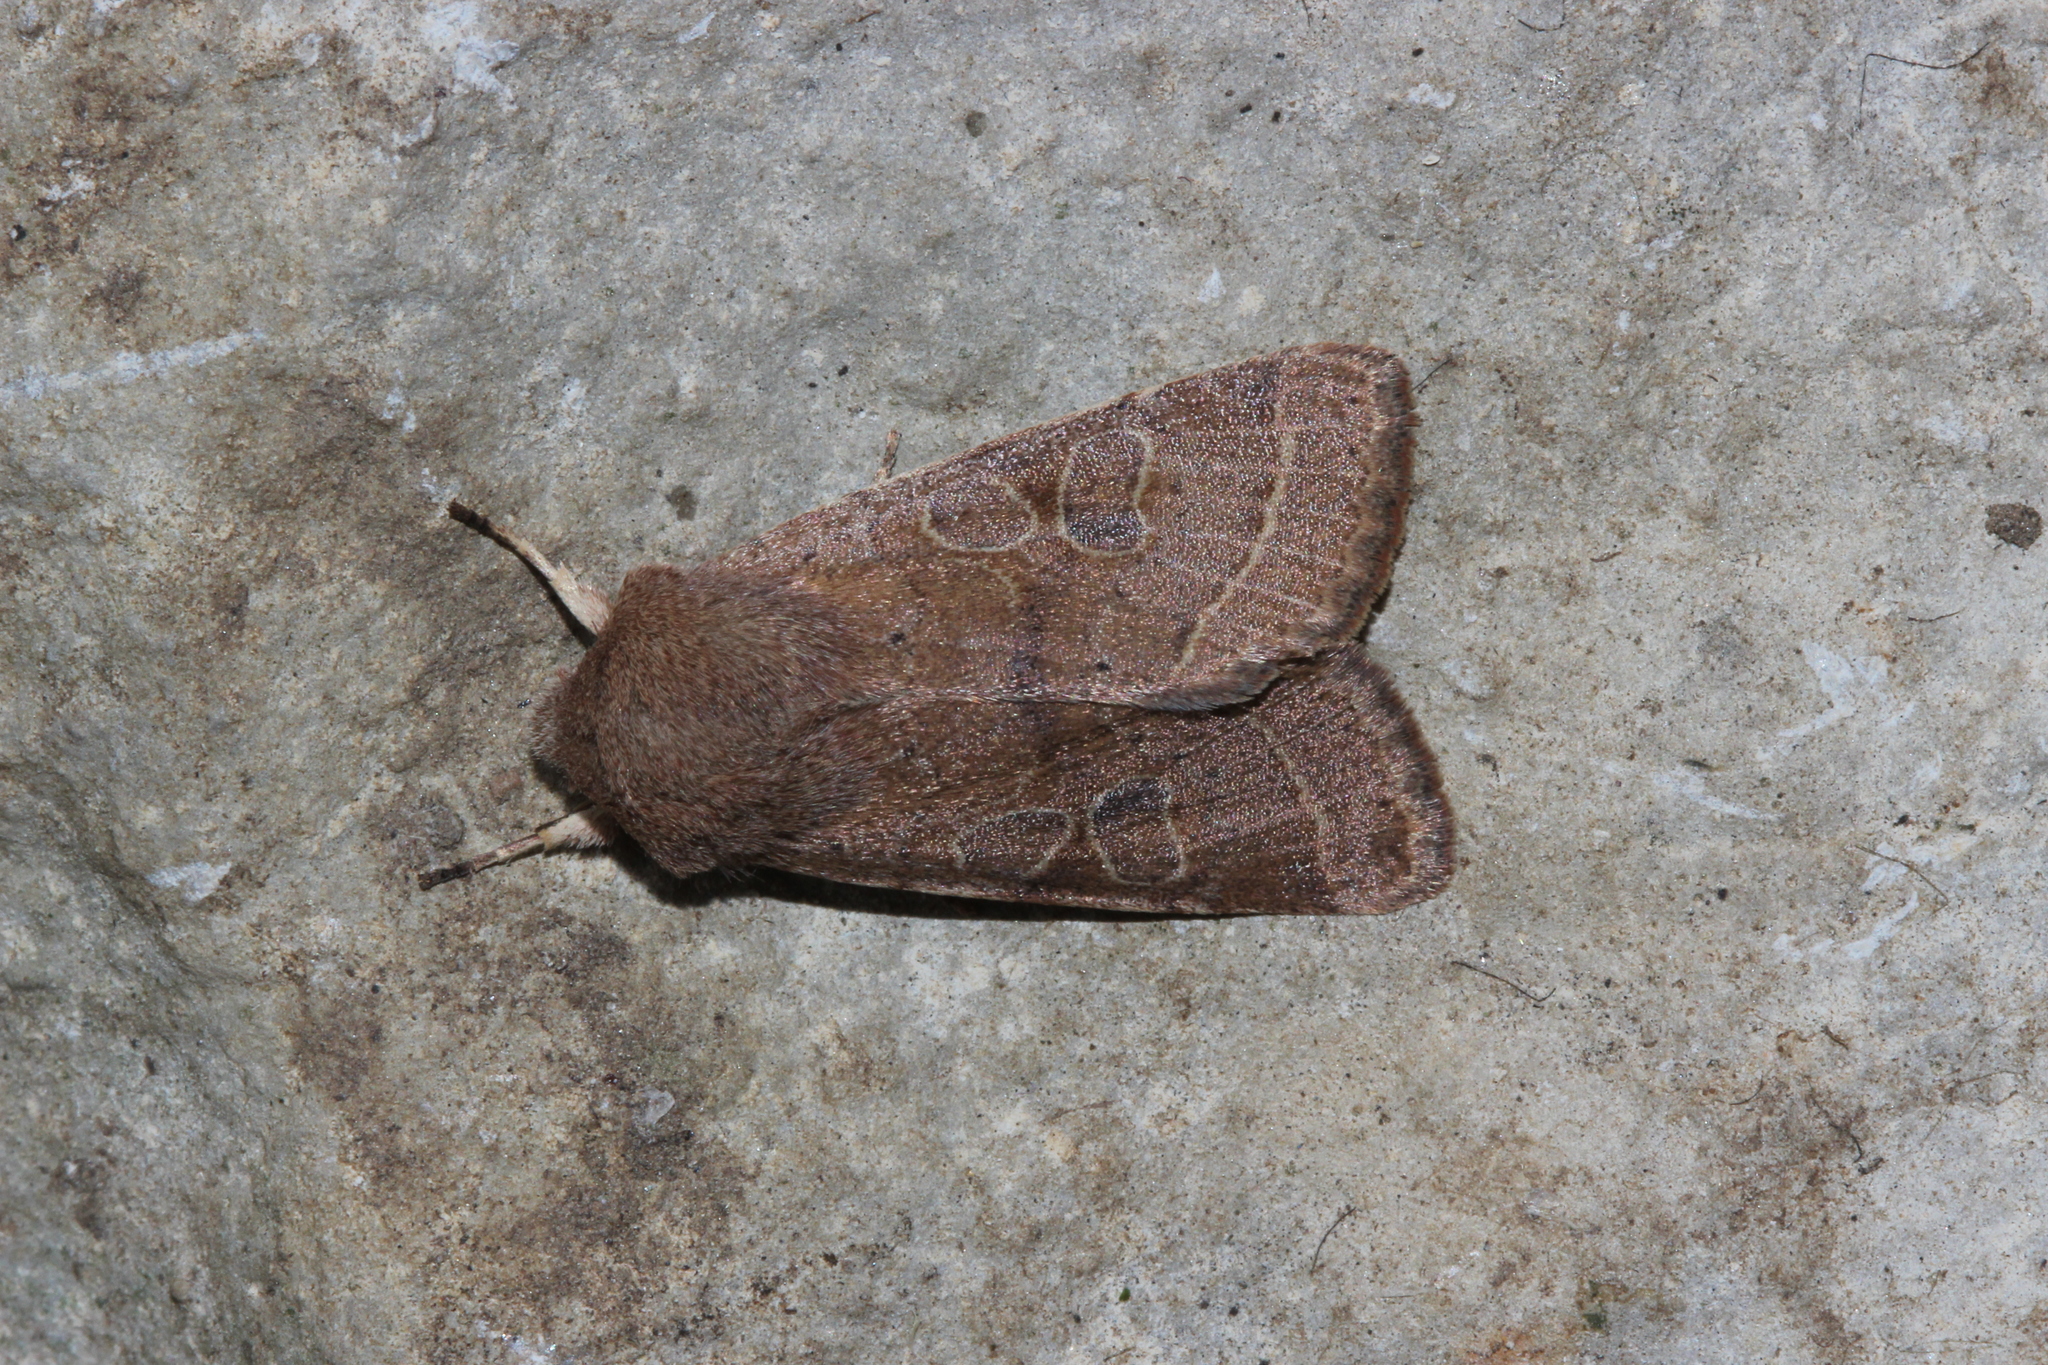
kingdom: Animalia
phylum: Arthropoda
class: Insecta
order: Lepidoptera
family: Noctuidae
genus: Orthosia
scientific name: Orthosia cerasi
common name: Common quaker
